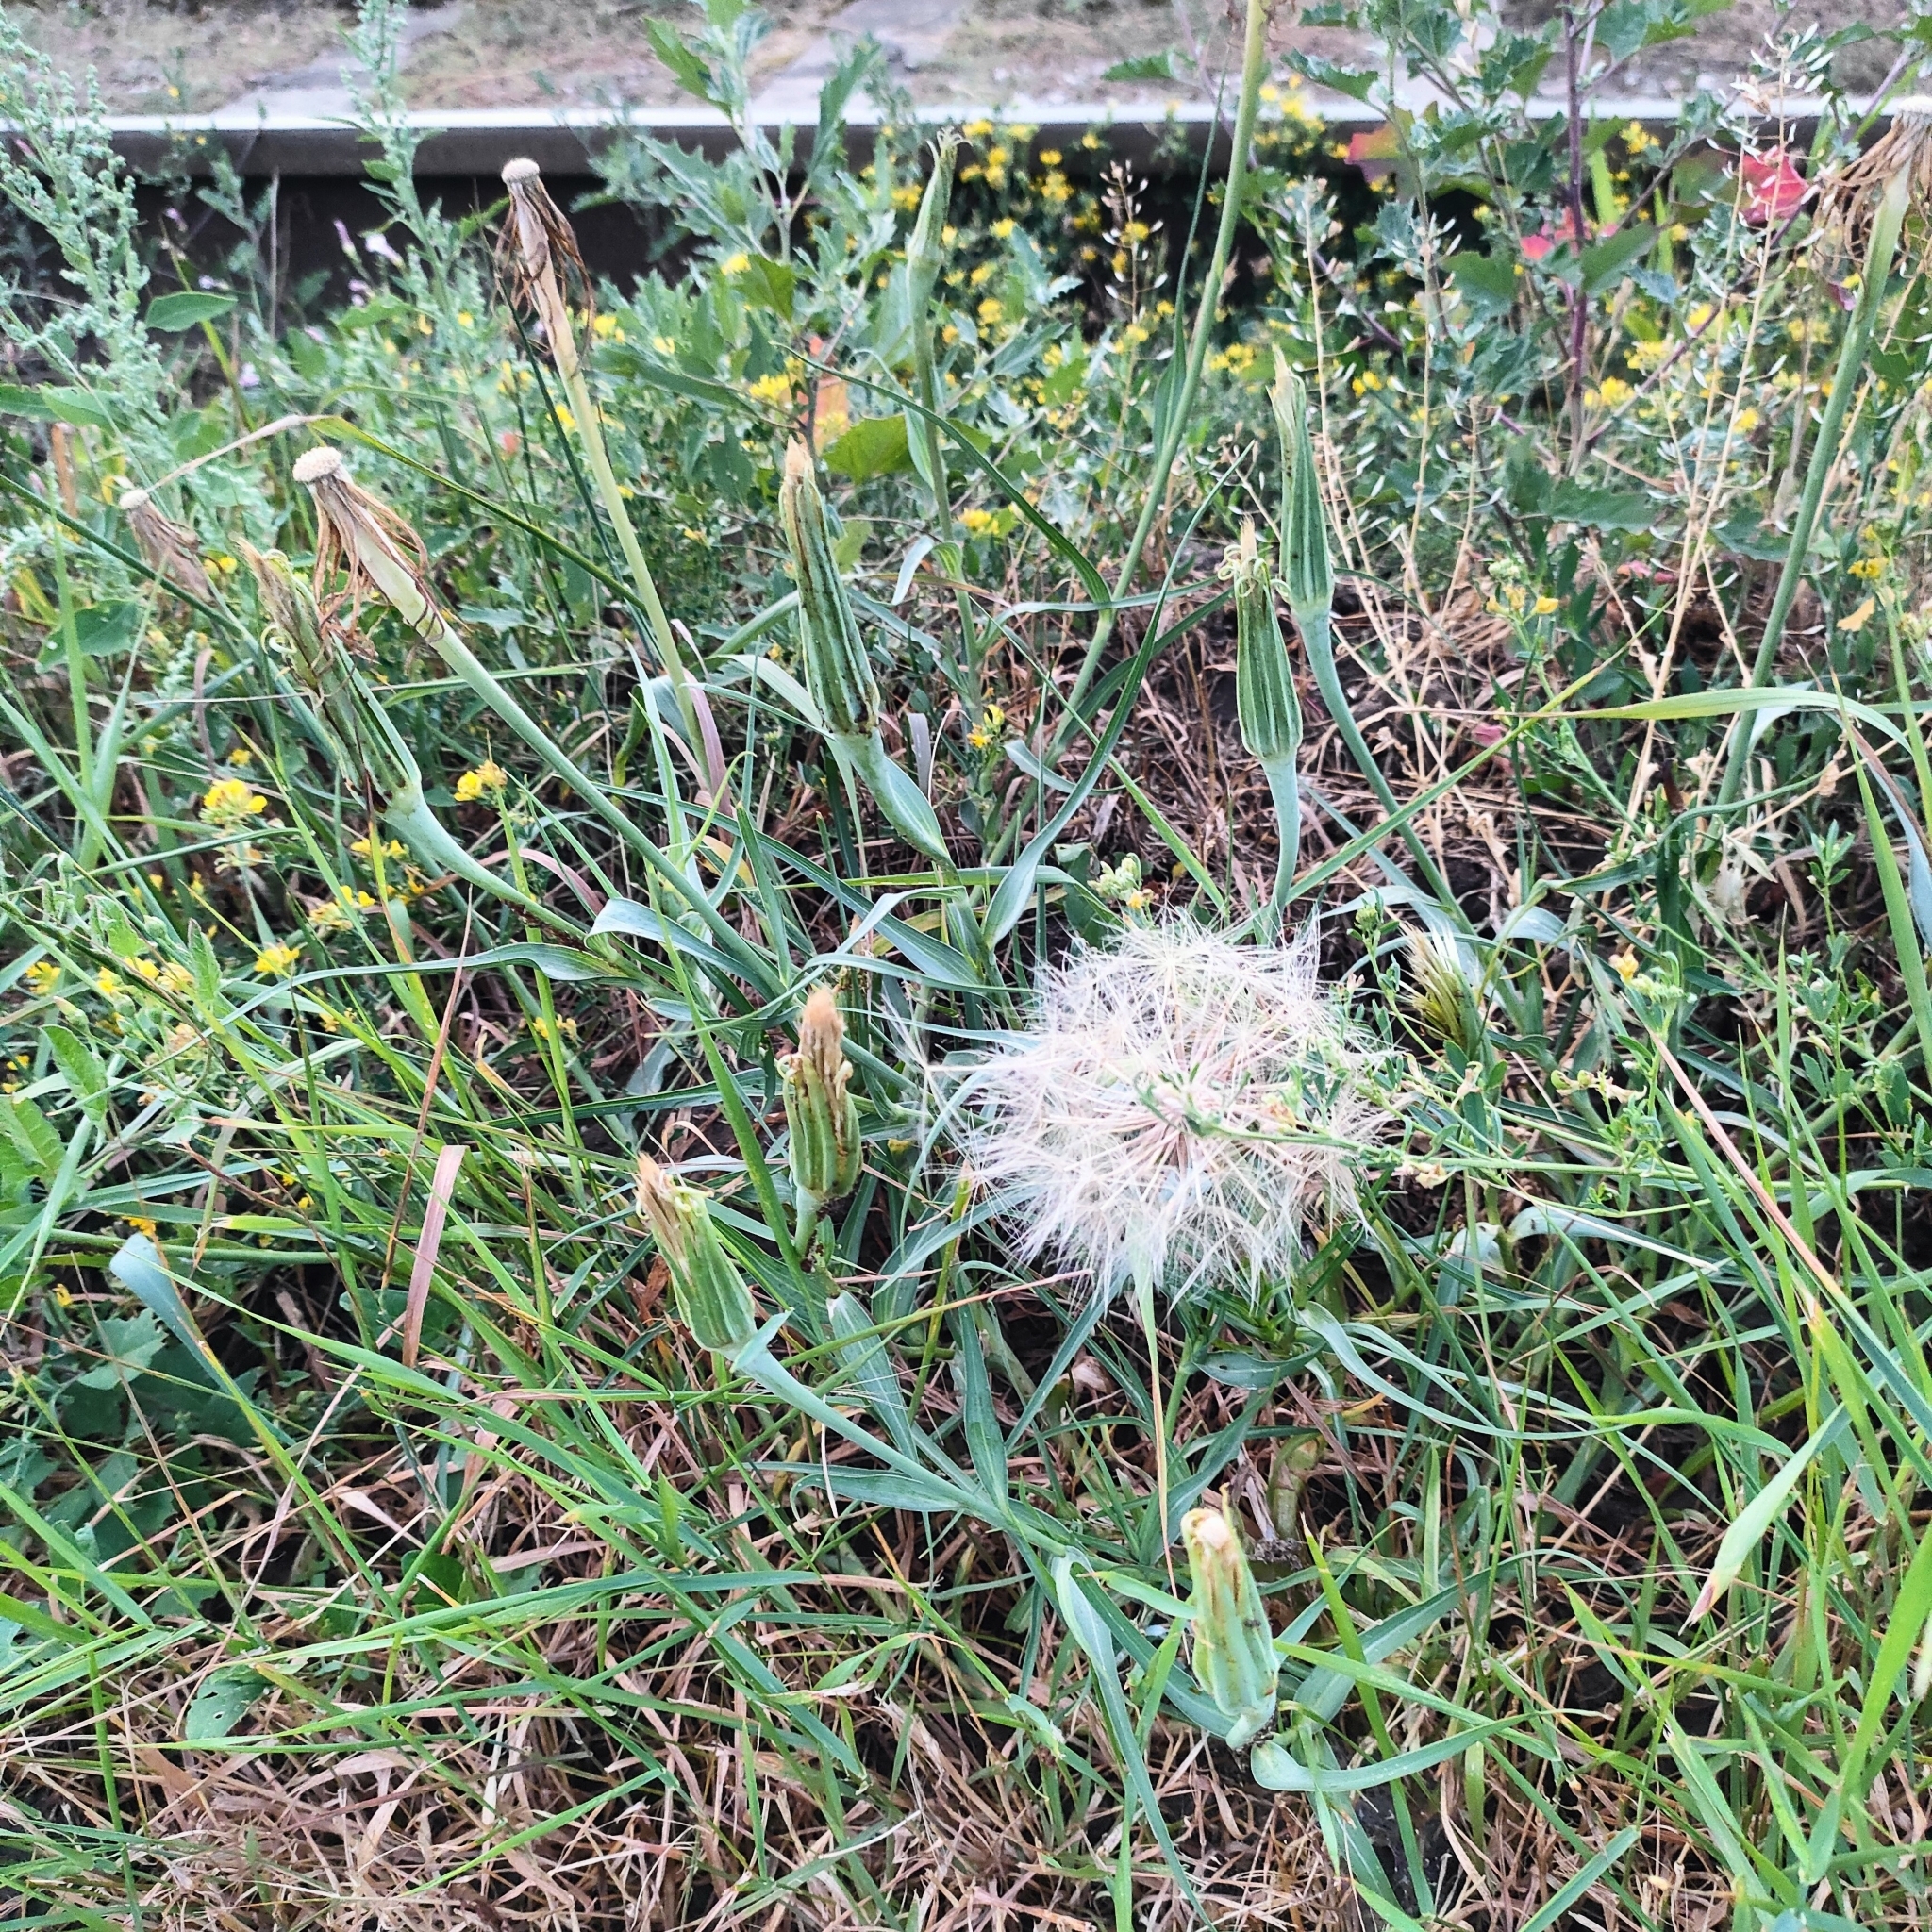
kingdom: Plantae
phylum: Tracheophyta
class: Magnoliopsida
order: Asterales
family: Asteraceae
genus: Tragopogon
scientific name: Tragopogon dubius
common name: Yellow salsify
